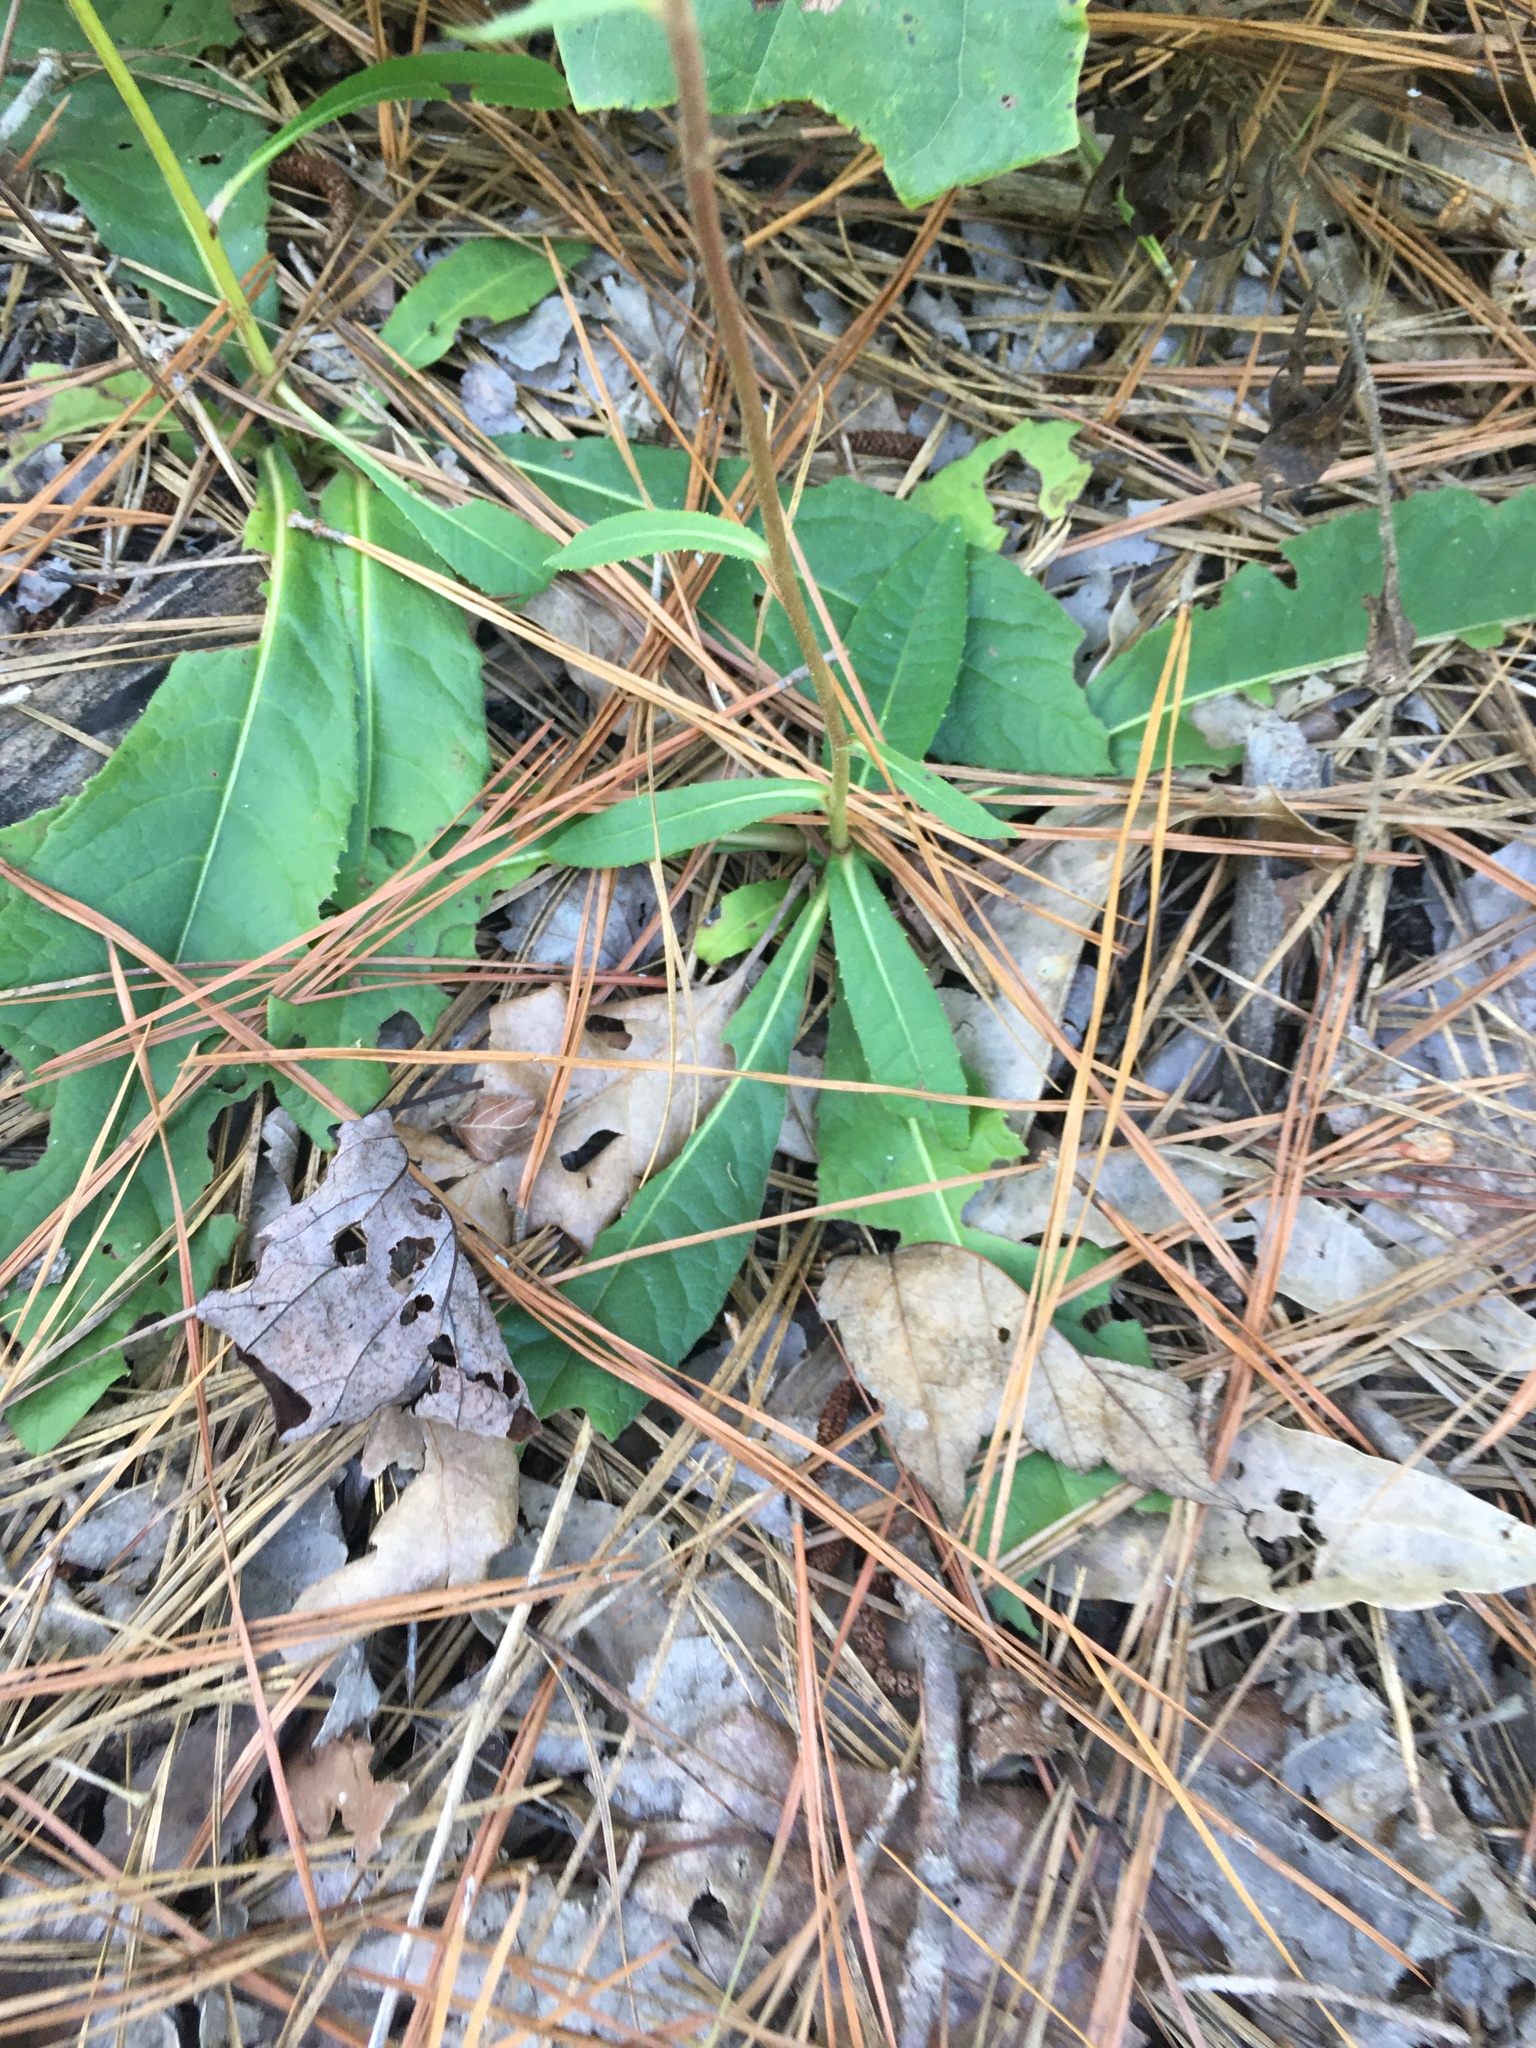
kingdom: Plantae
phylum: Tracheophyta
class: Magnoliopsida
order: Asterales
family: Asteraceae
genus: Vernonia
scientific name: Vernonia acaulis
